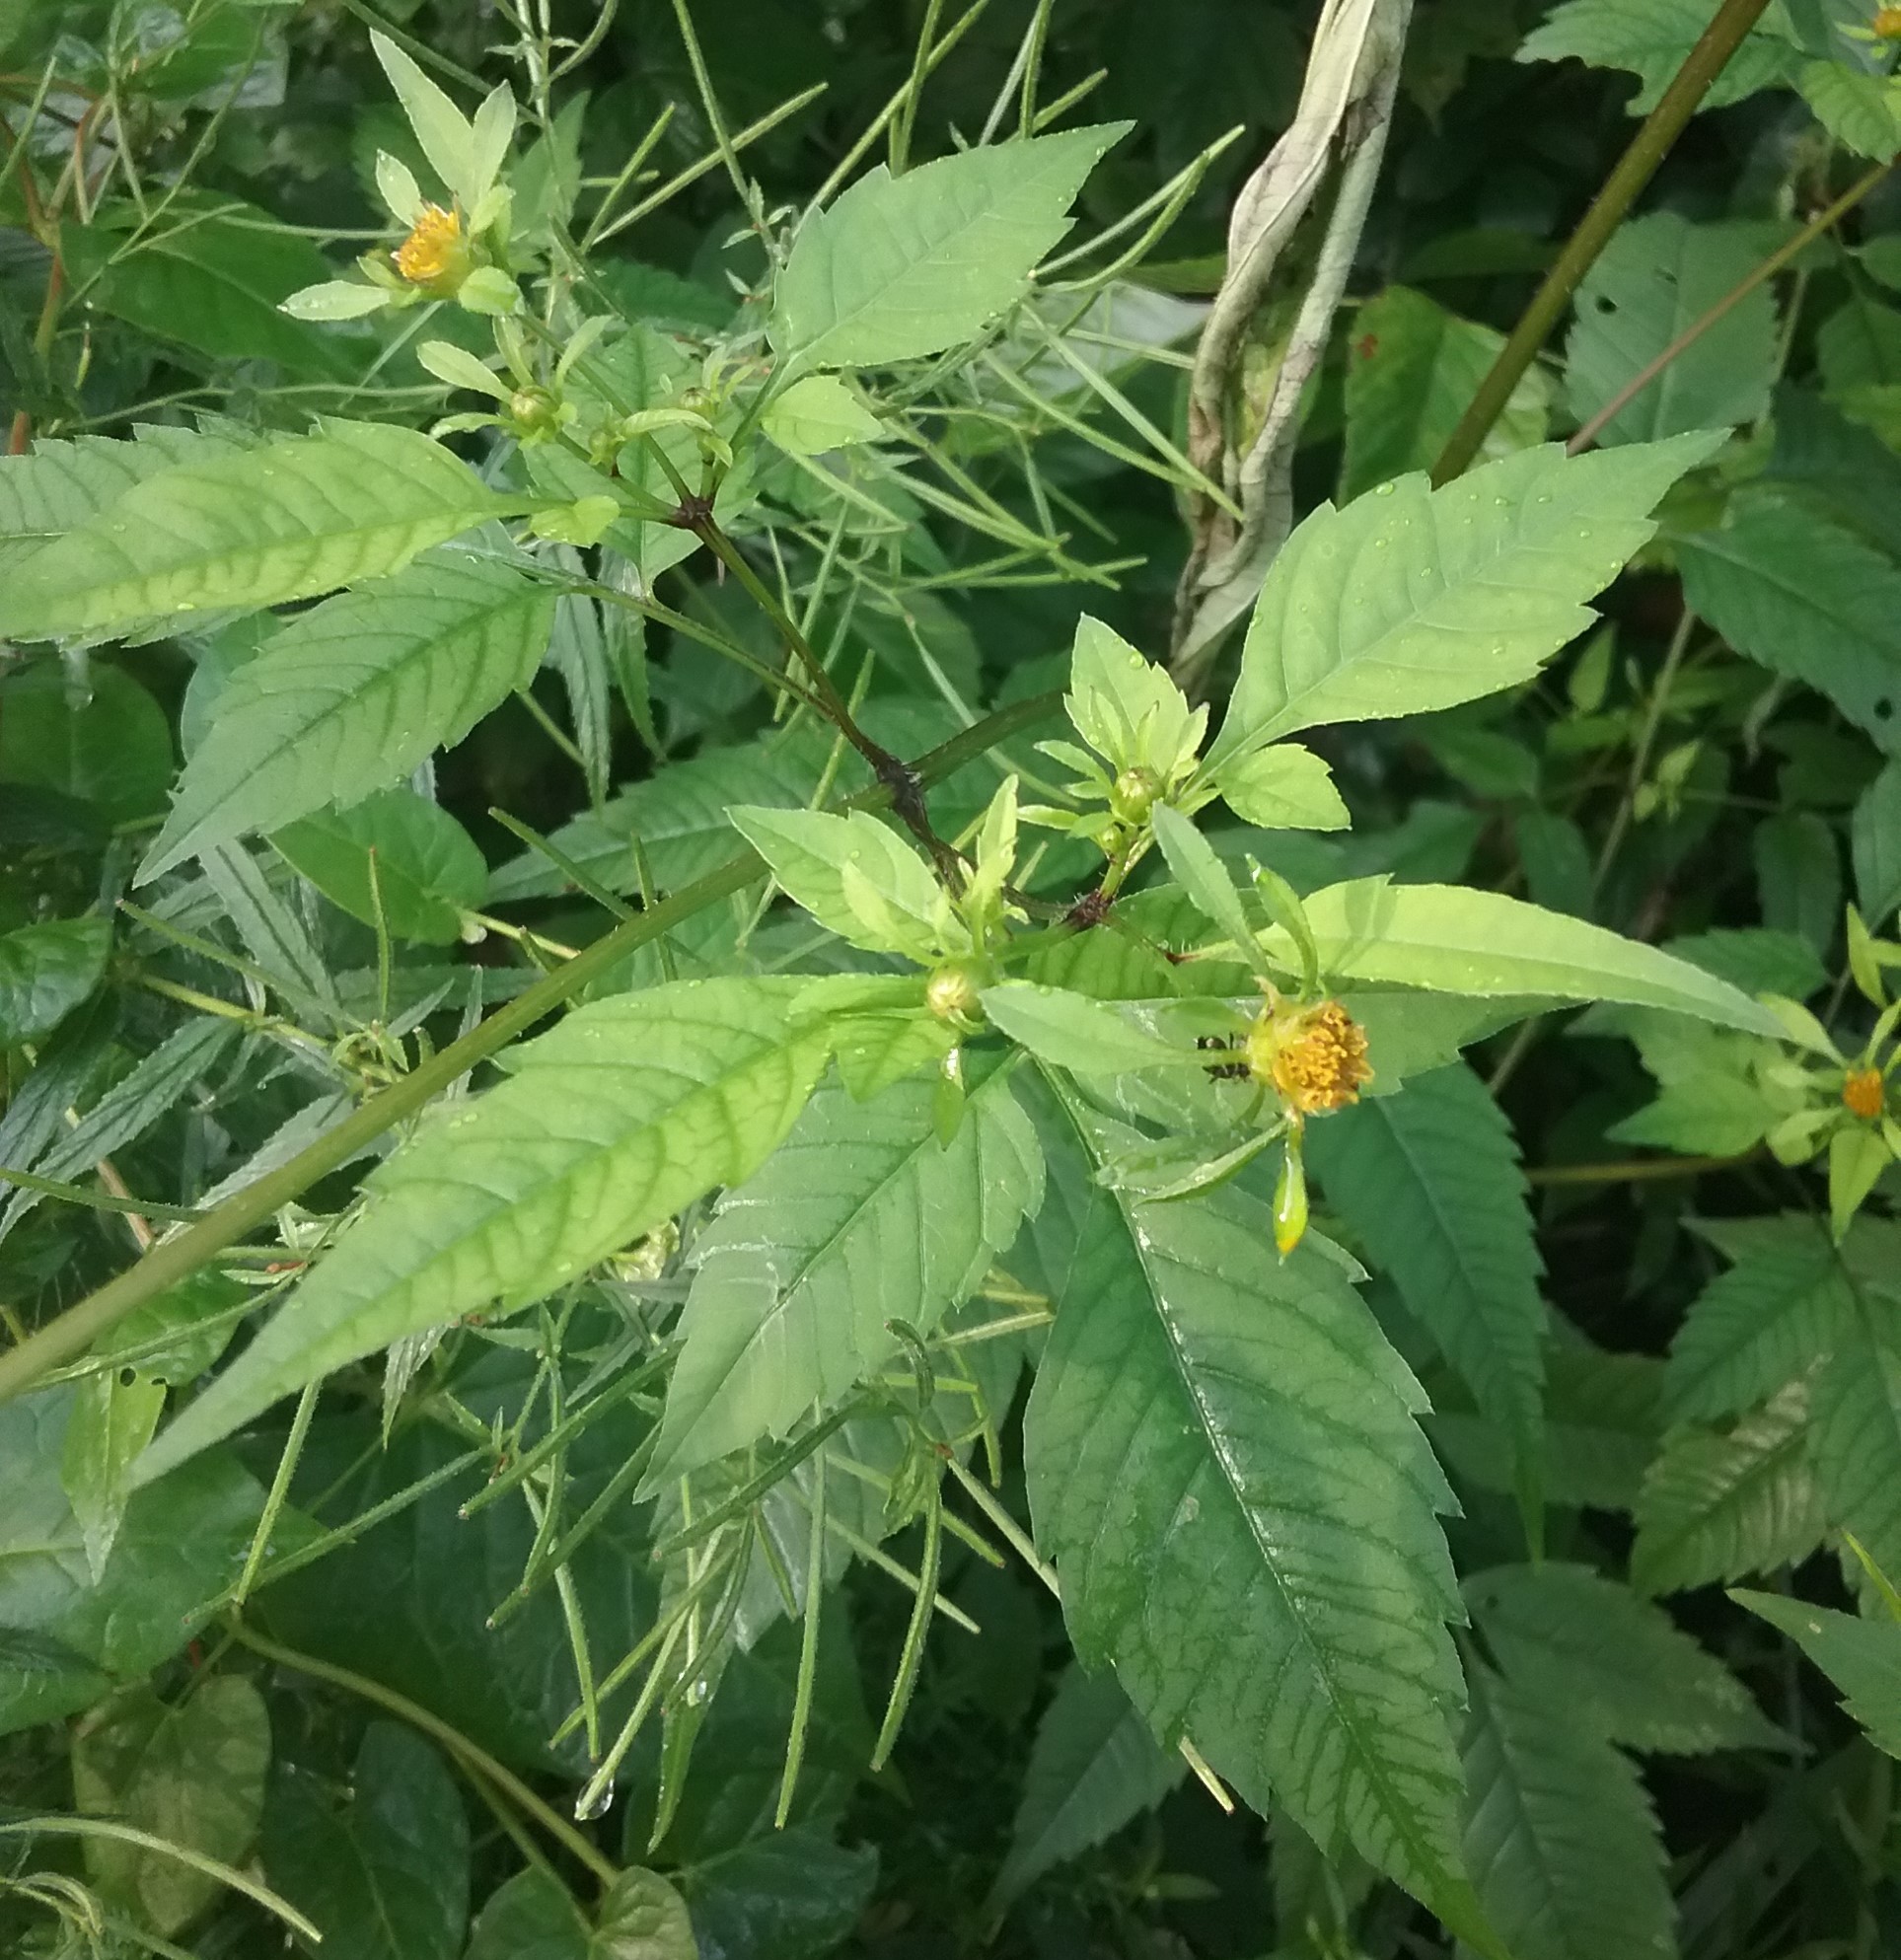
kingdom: Plantae
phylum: Tracheophyta
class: Magnoliopsida
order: Asterales
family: Asteraceae
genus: Bidens
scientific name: Bidens frondosa
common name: Beggarticks
